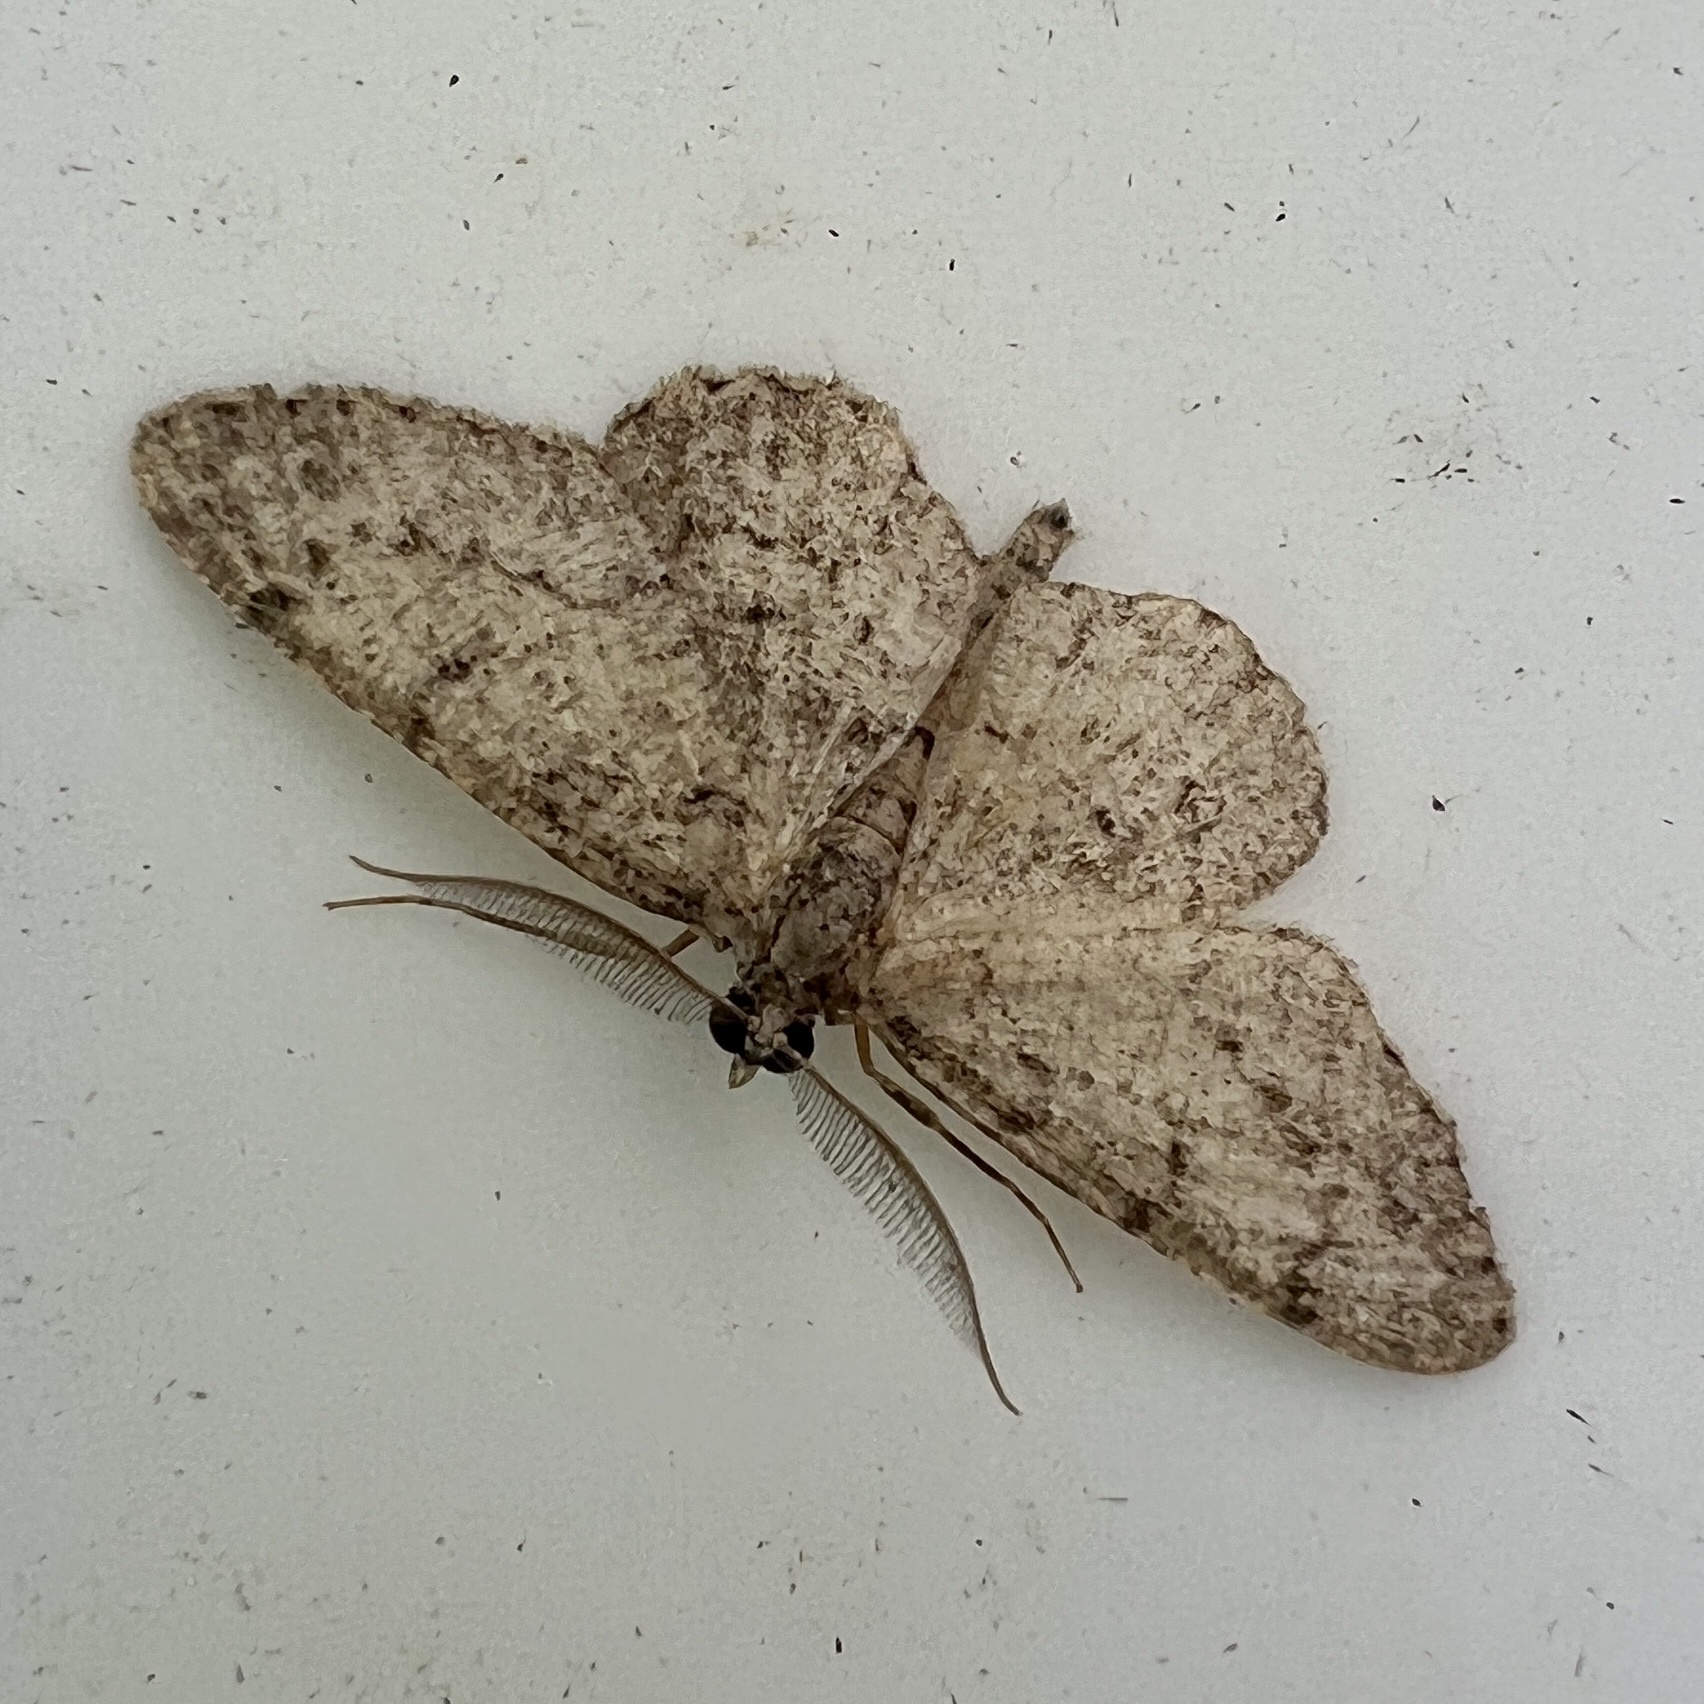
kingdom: Animalia
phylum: Arthropoda
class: Insecta
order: Lepidoptera
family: Geometridae
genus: Protoboarmia
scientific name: Protoboarmia porcelaria
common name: Porcelain gray
